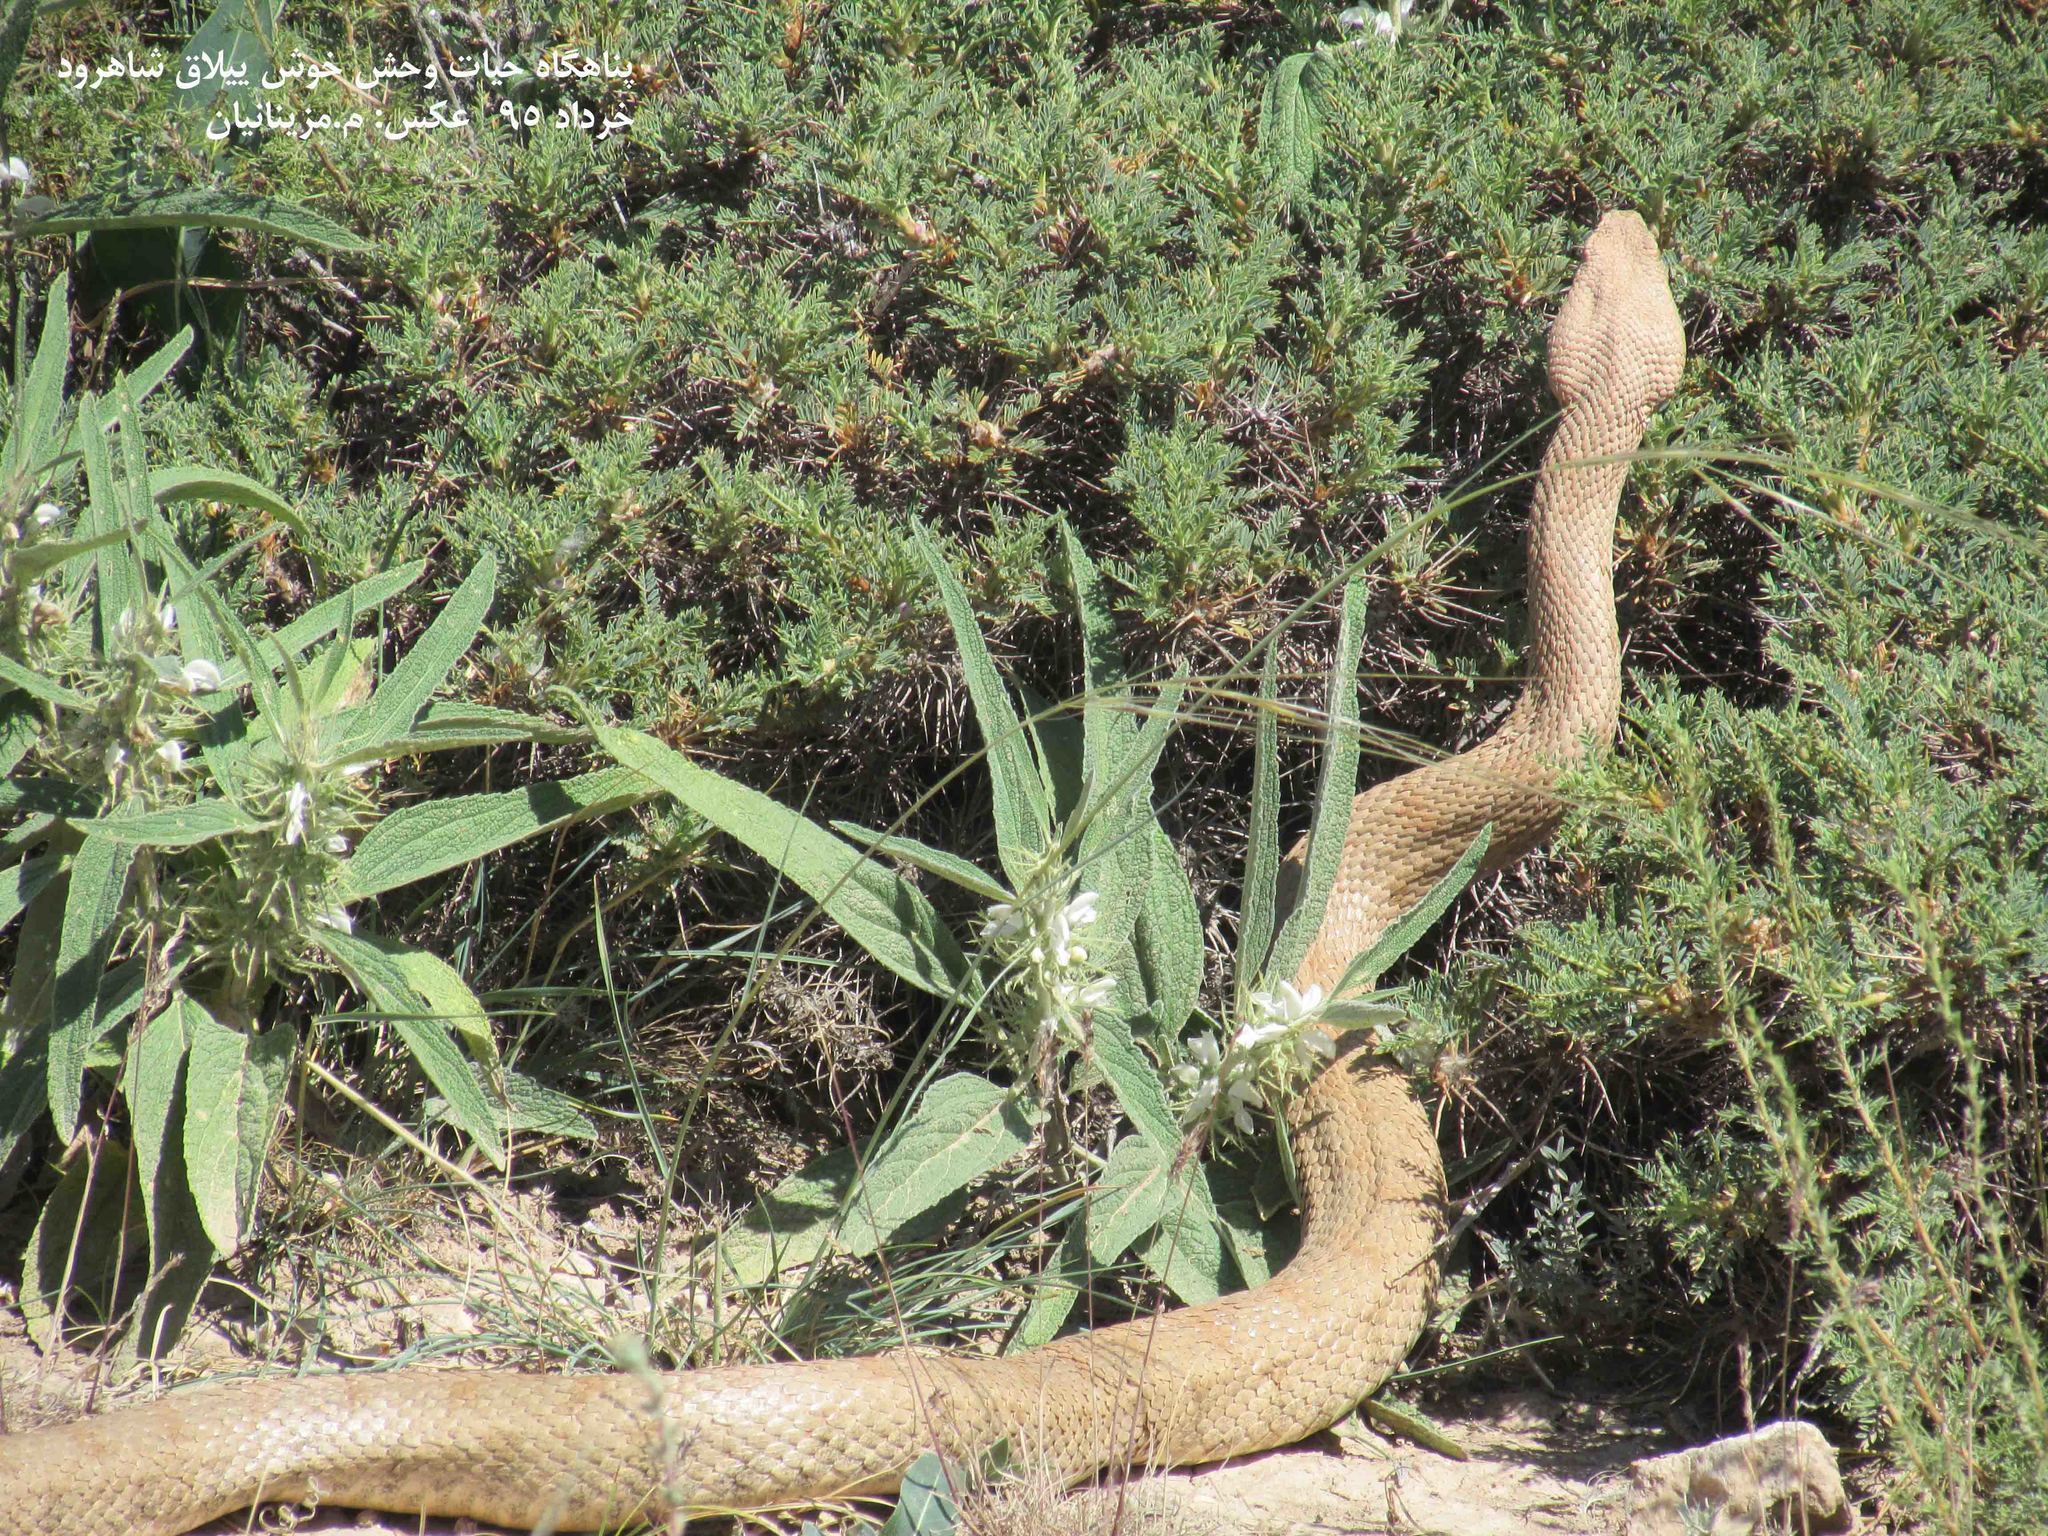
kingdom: Animalia
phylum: Chordata
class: Squamata
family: Viperidae
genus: Macrovipera
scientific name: Macrovipera lebetinus
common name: Levantine viper
